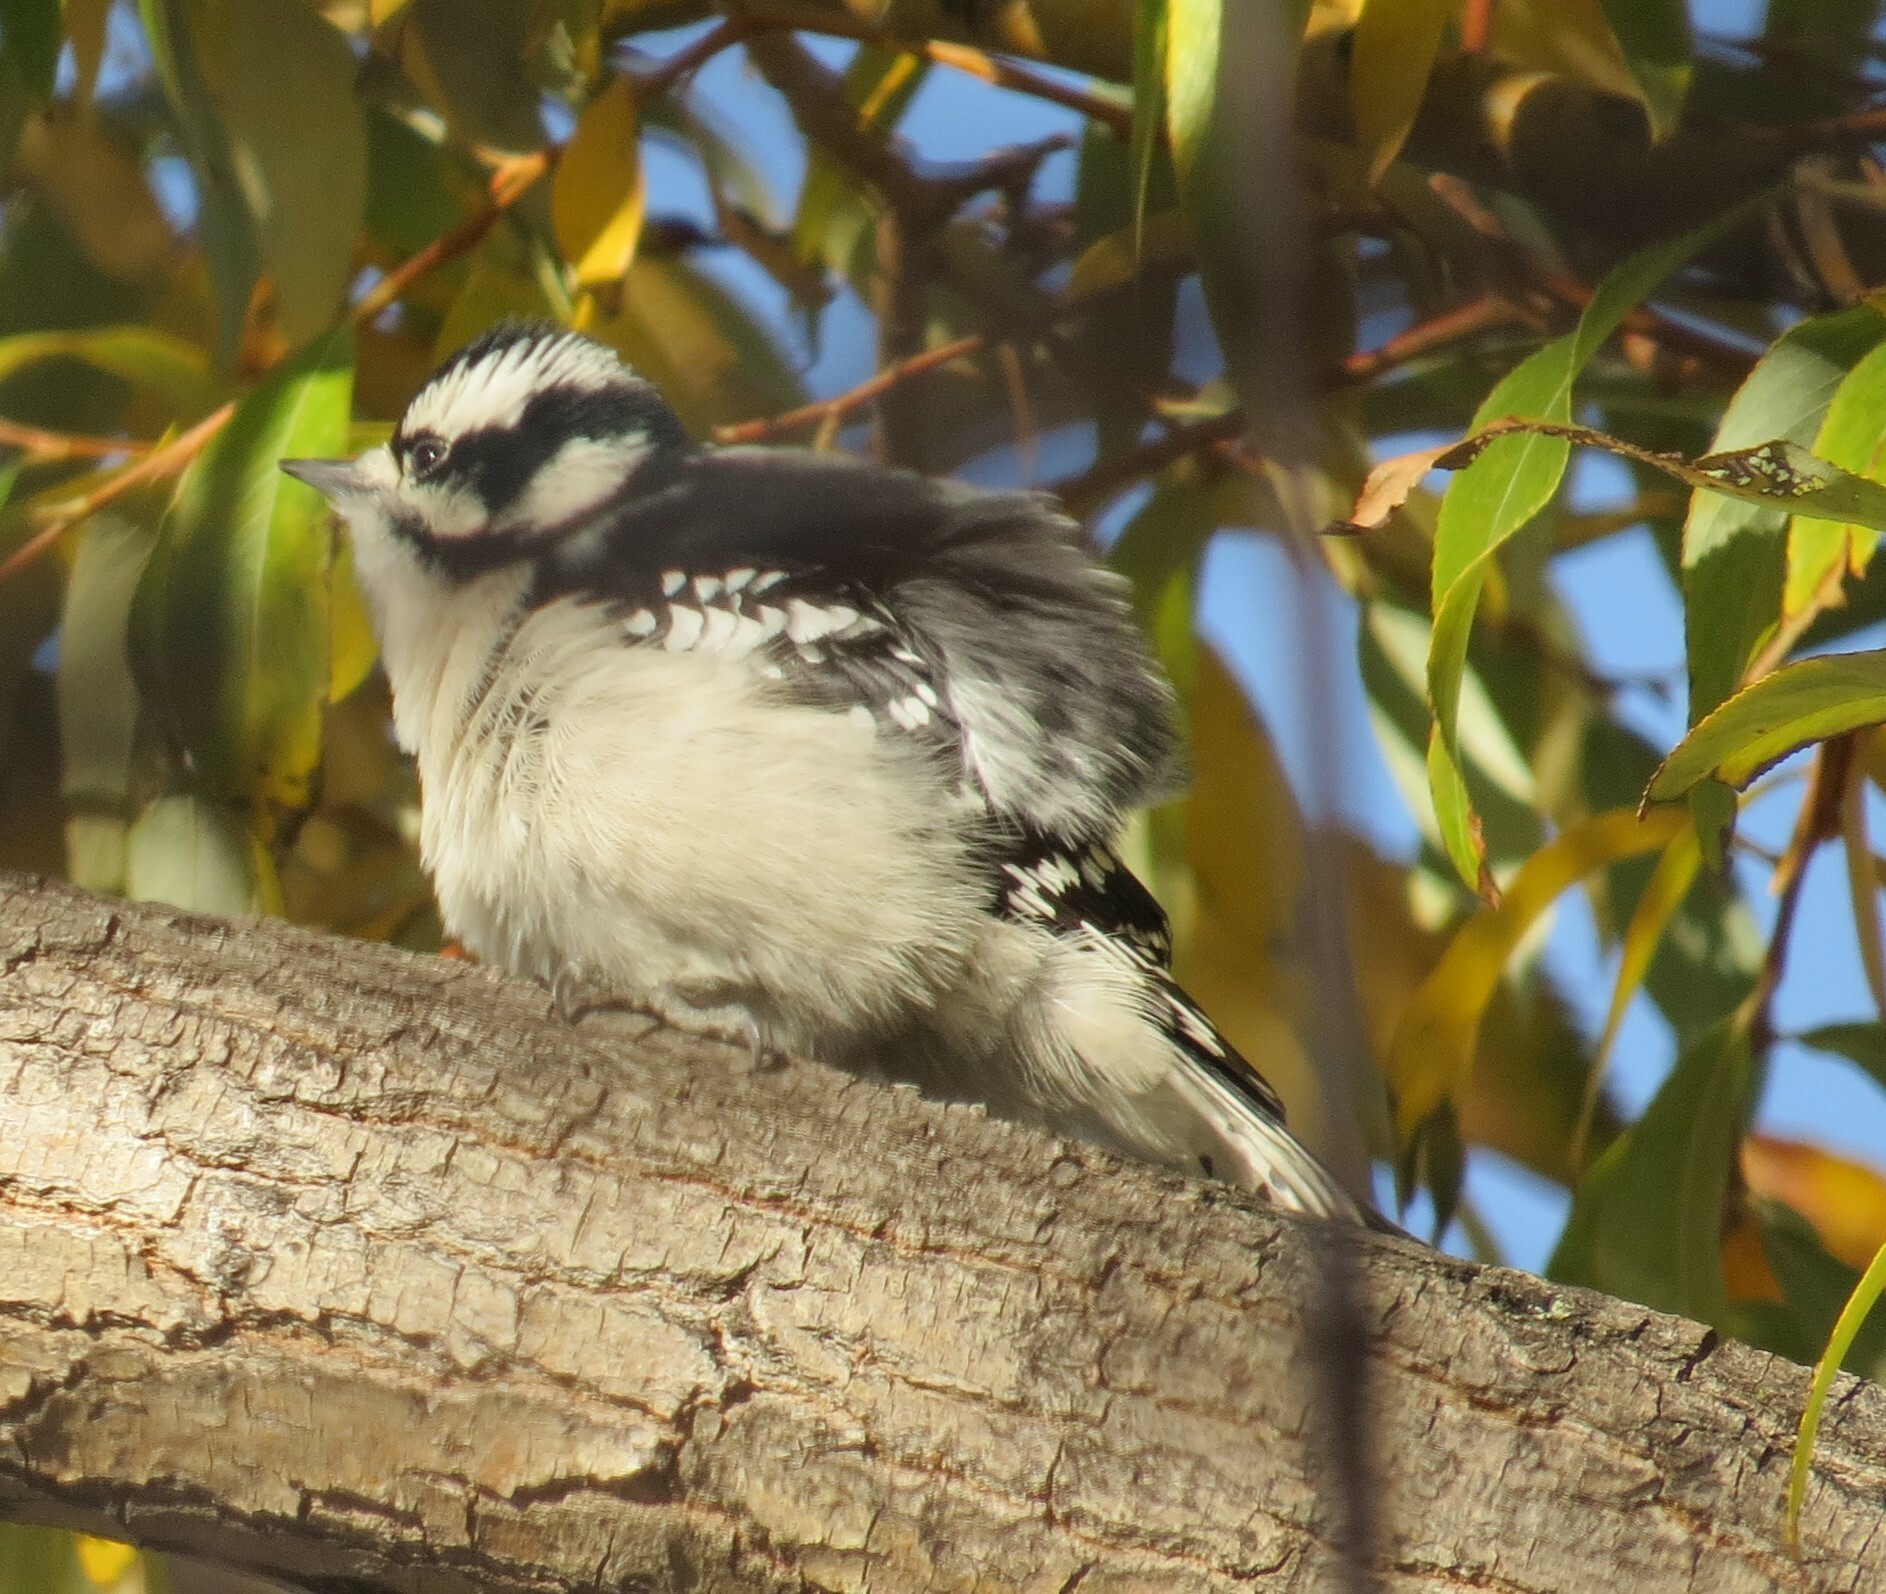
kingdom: Animalia
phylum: Chordata
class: Aves
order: Piciformes
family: Picidae
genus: Dryobates
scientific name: Dryobates pubescens
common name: Downy woodpecker
